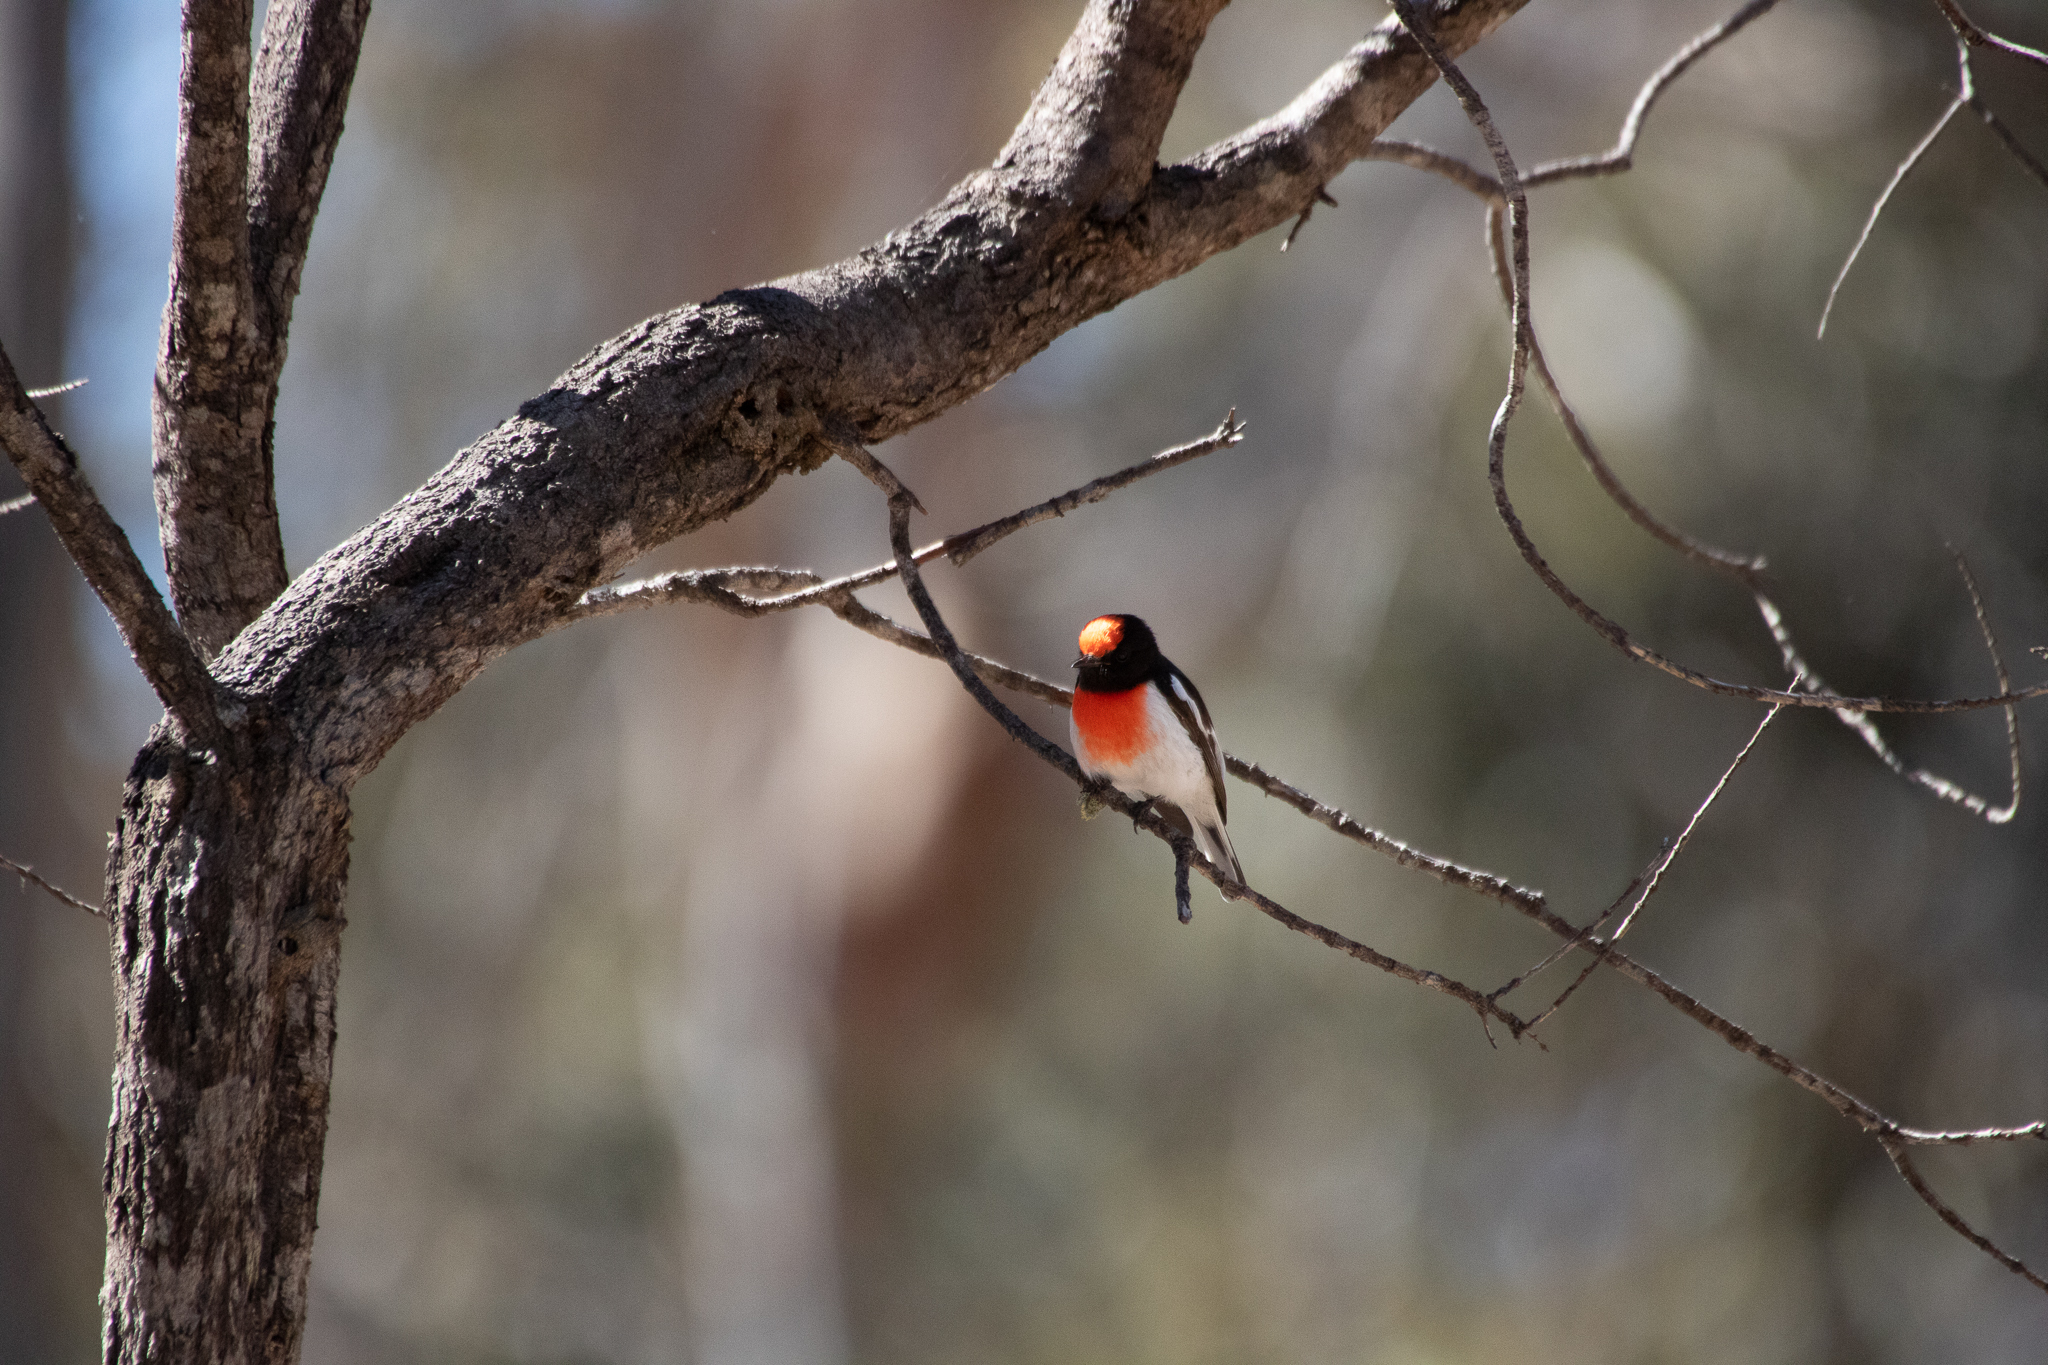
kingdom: Animalia
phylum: Chordata
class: Aves
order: Passeriformes
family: Petroicidae
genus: Petroica
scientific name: Petroica goodenovii
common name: Red-capped robin
